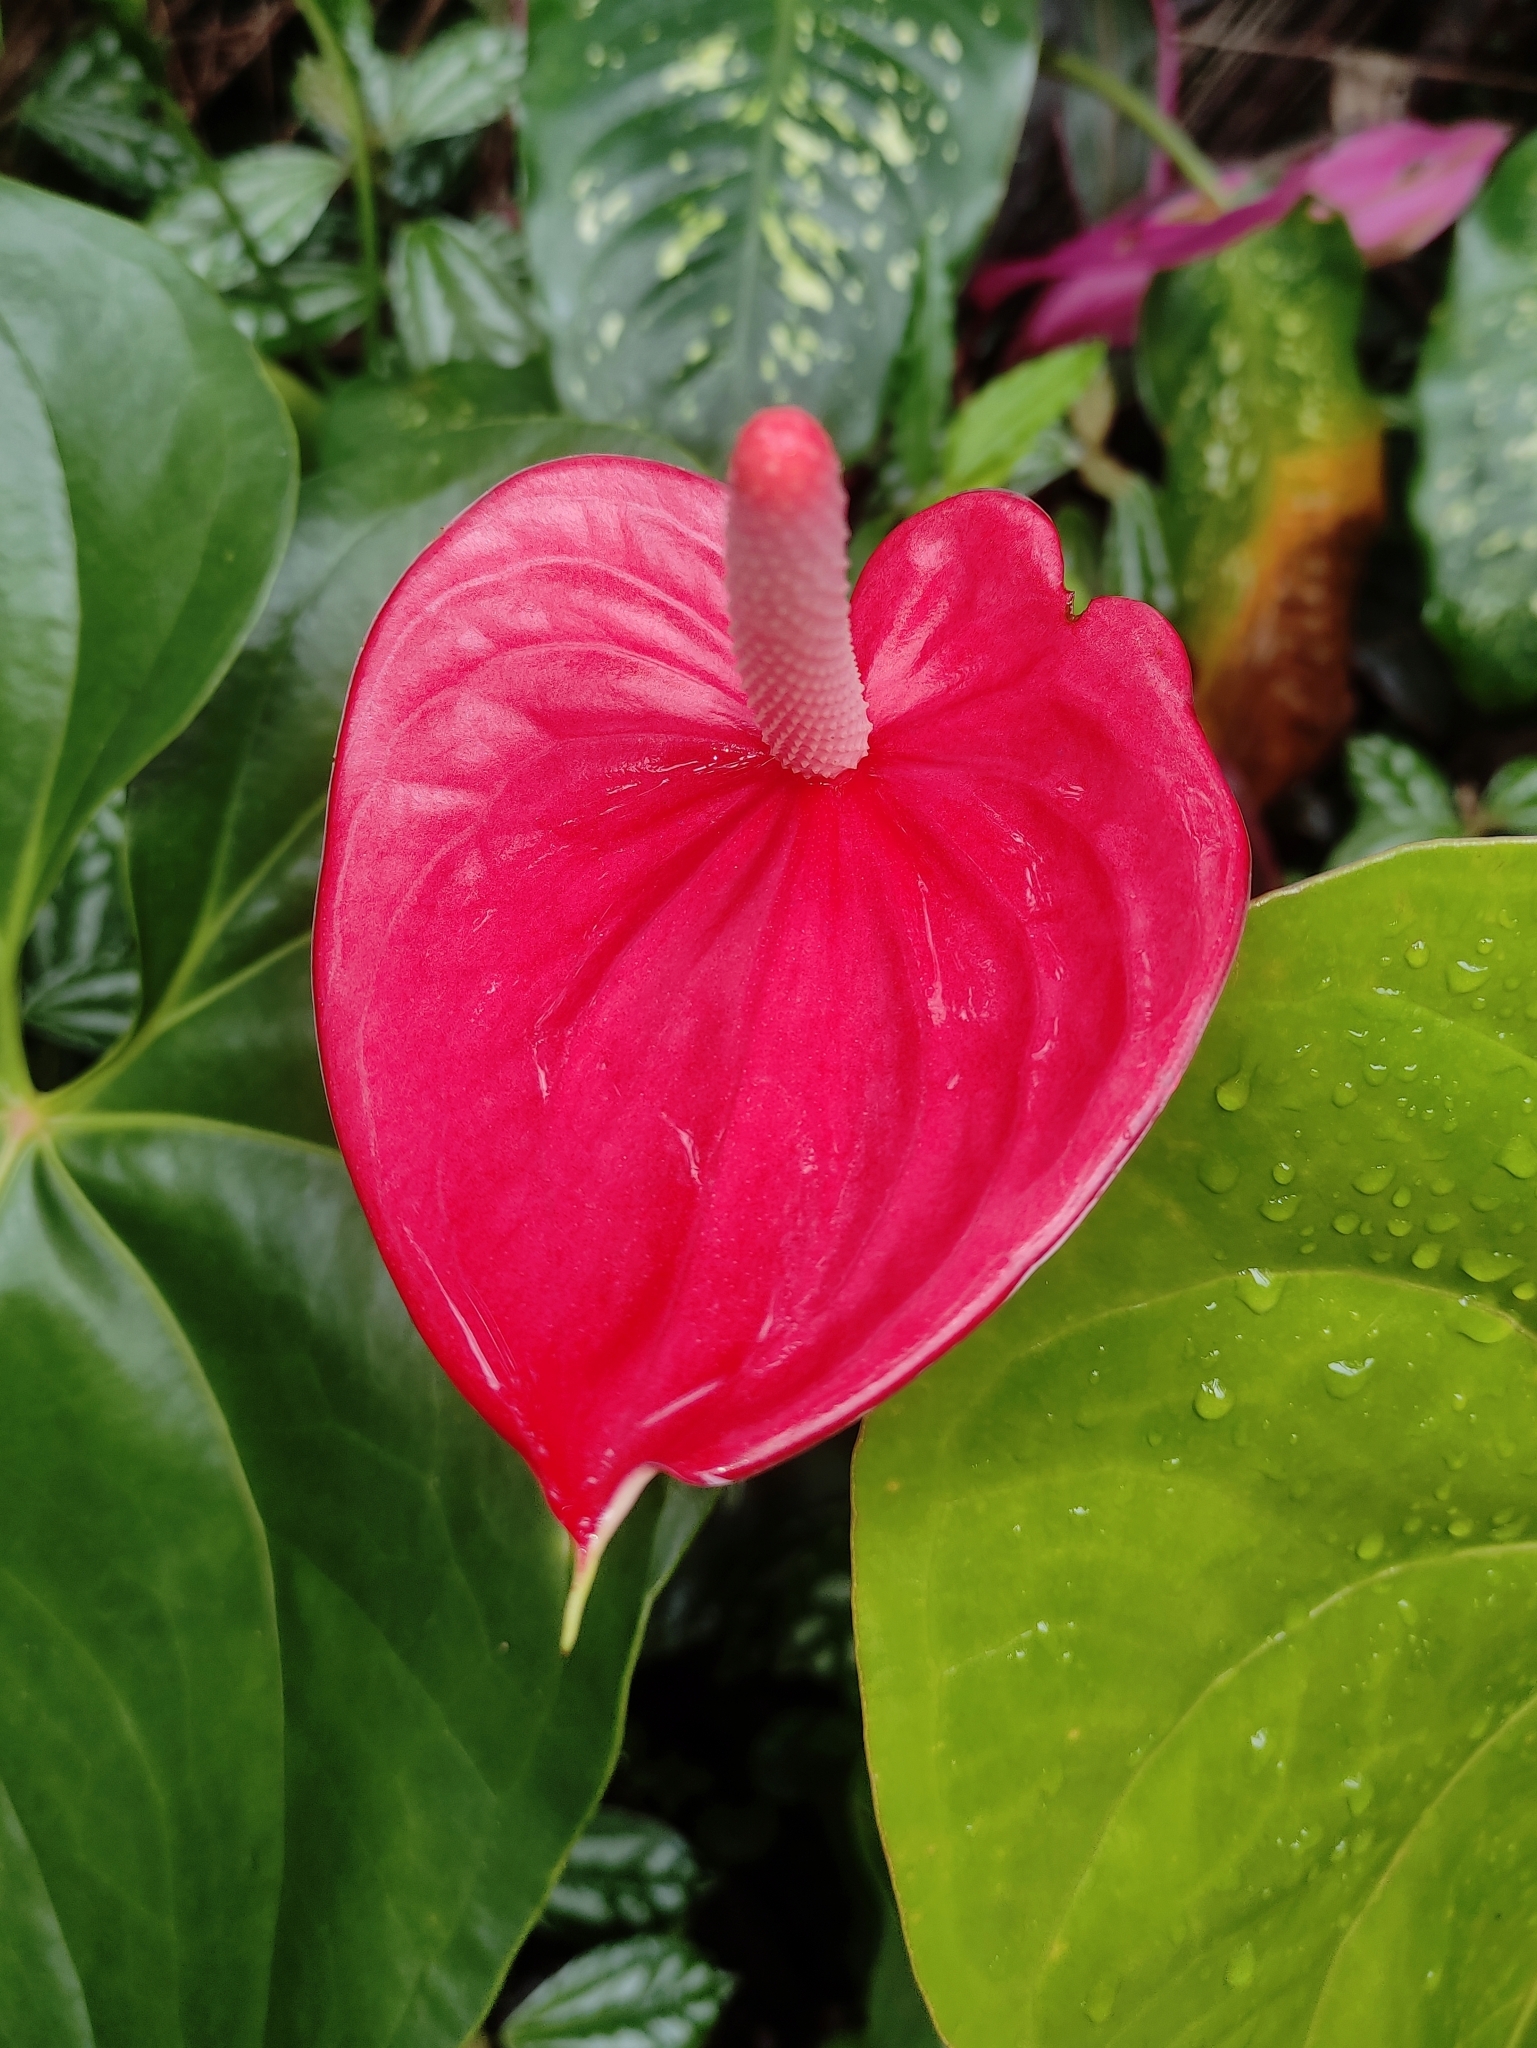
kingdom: Plantae
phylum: Tracheophyta
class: Liliopsida
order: Alismatales
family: Araceae
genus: Anthurium
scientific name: Anthurium andraeanum
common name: Flamingo-flower
